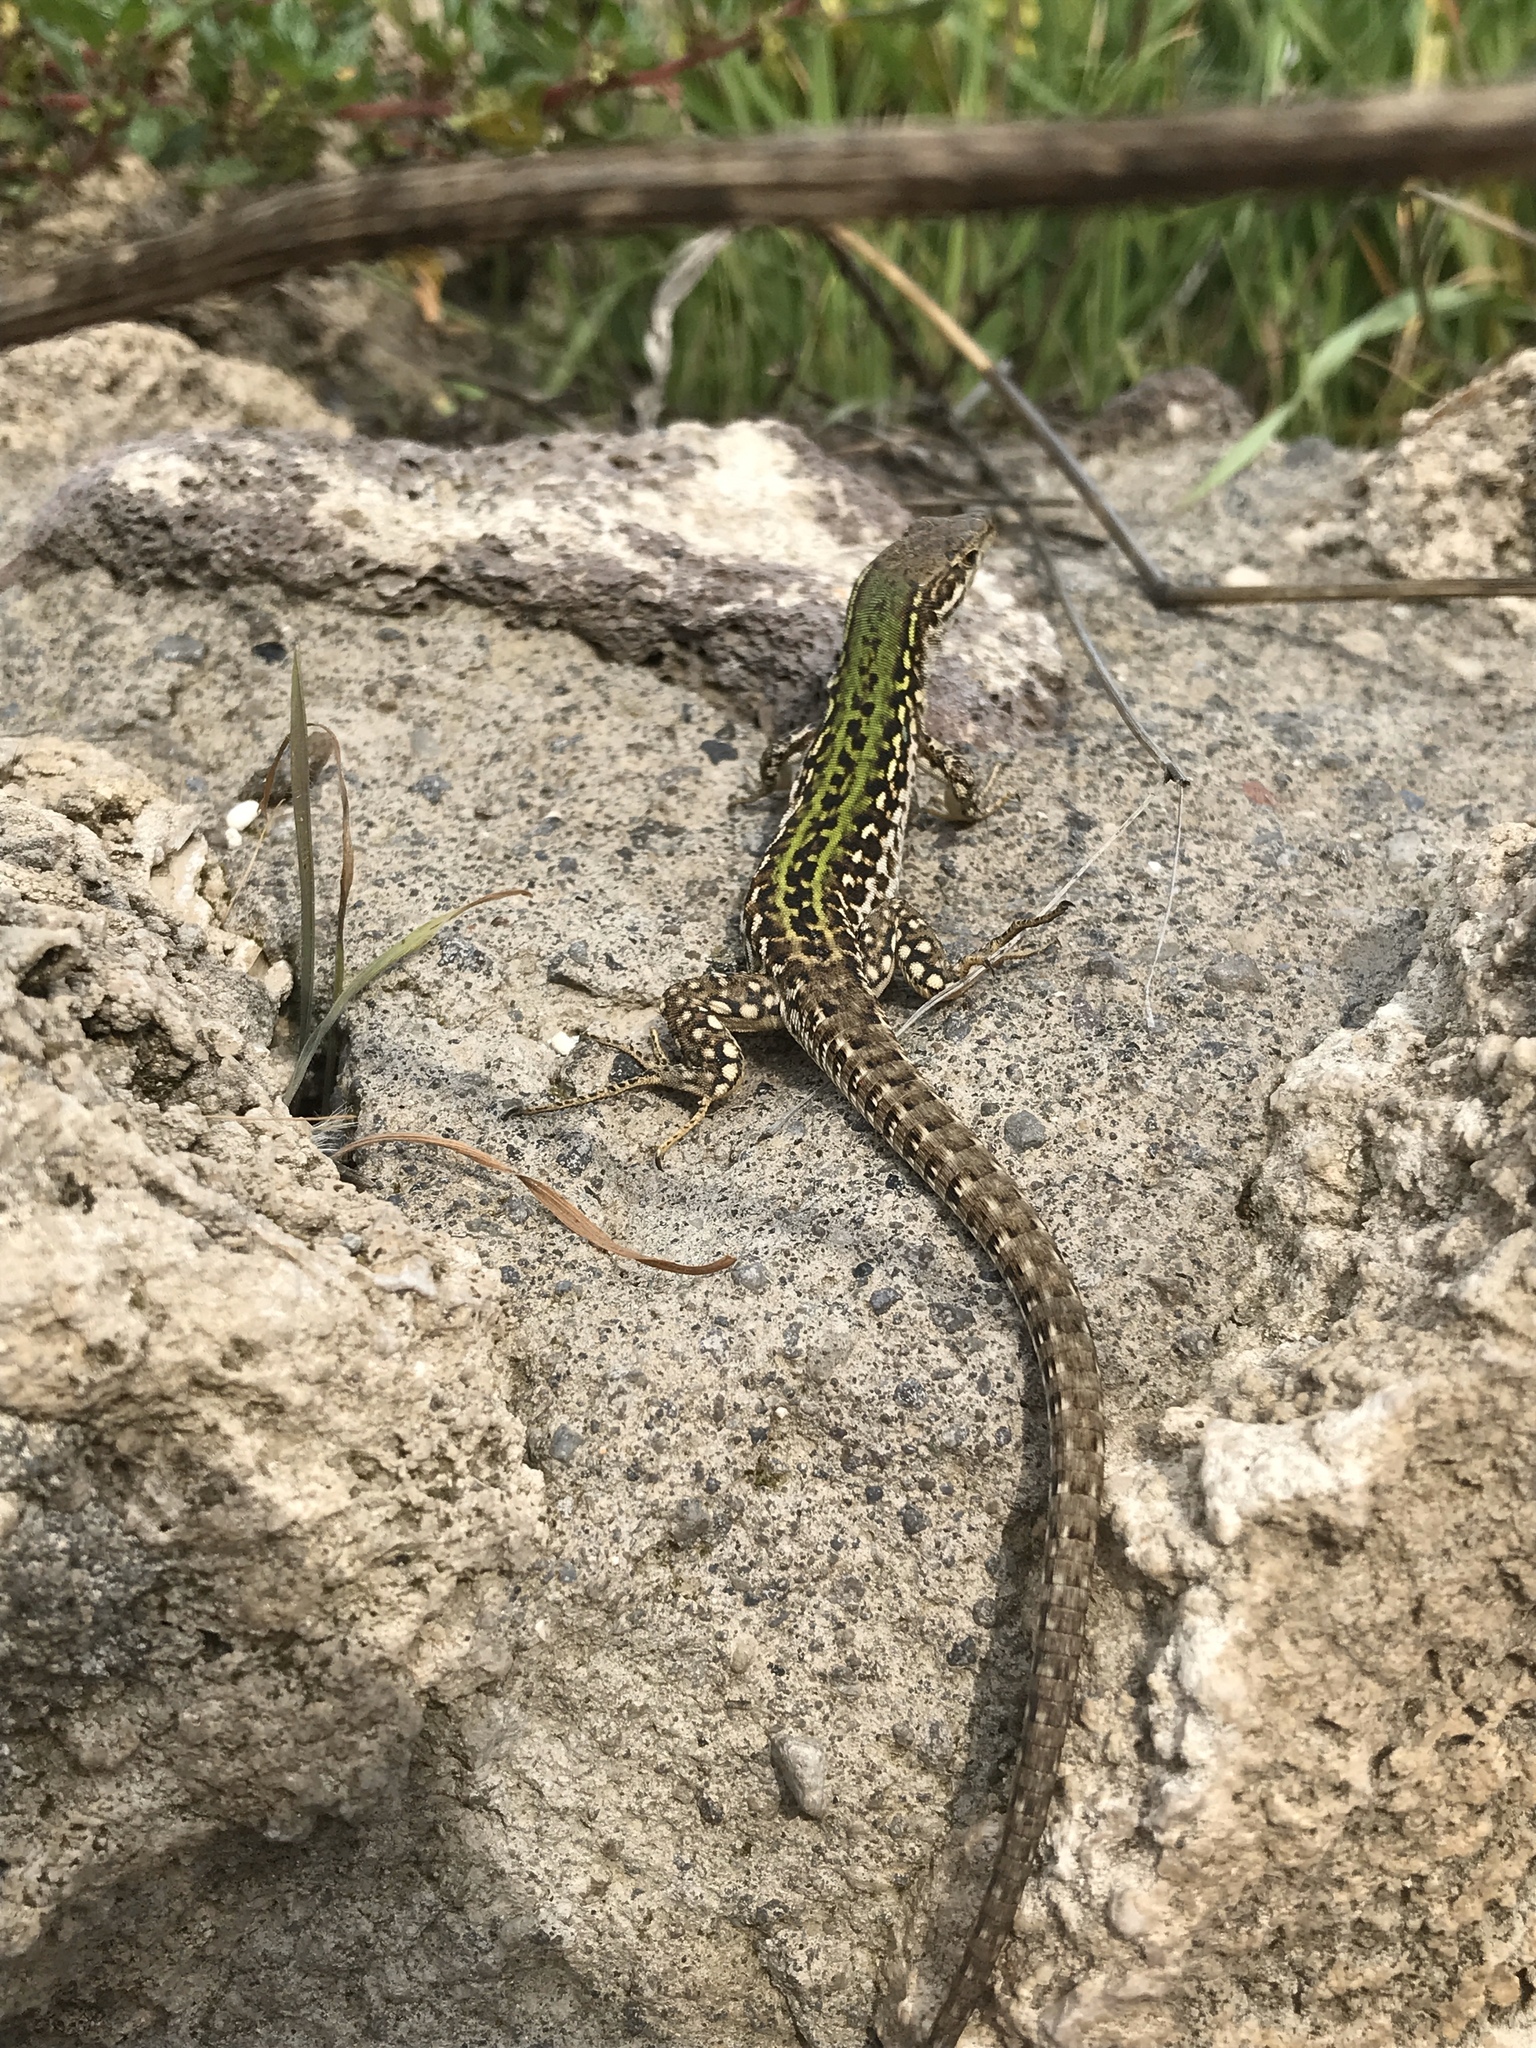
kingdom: Animalia
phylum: Chordata
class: Squamata
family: Lacertidae
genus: Podarcis
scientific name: Podarcis siculus
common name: Italian wall lizard
